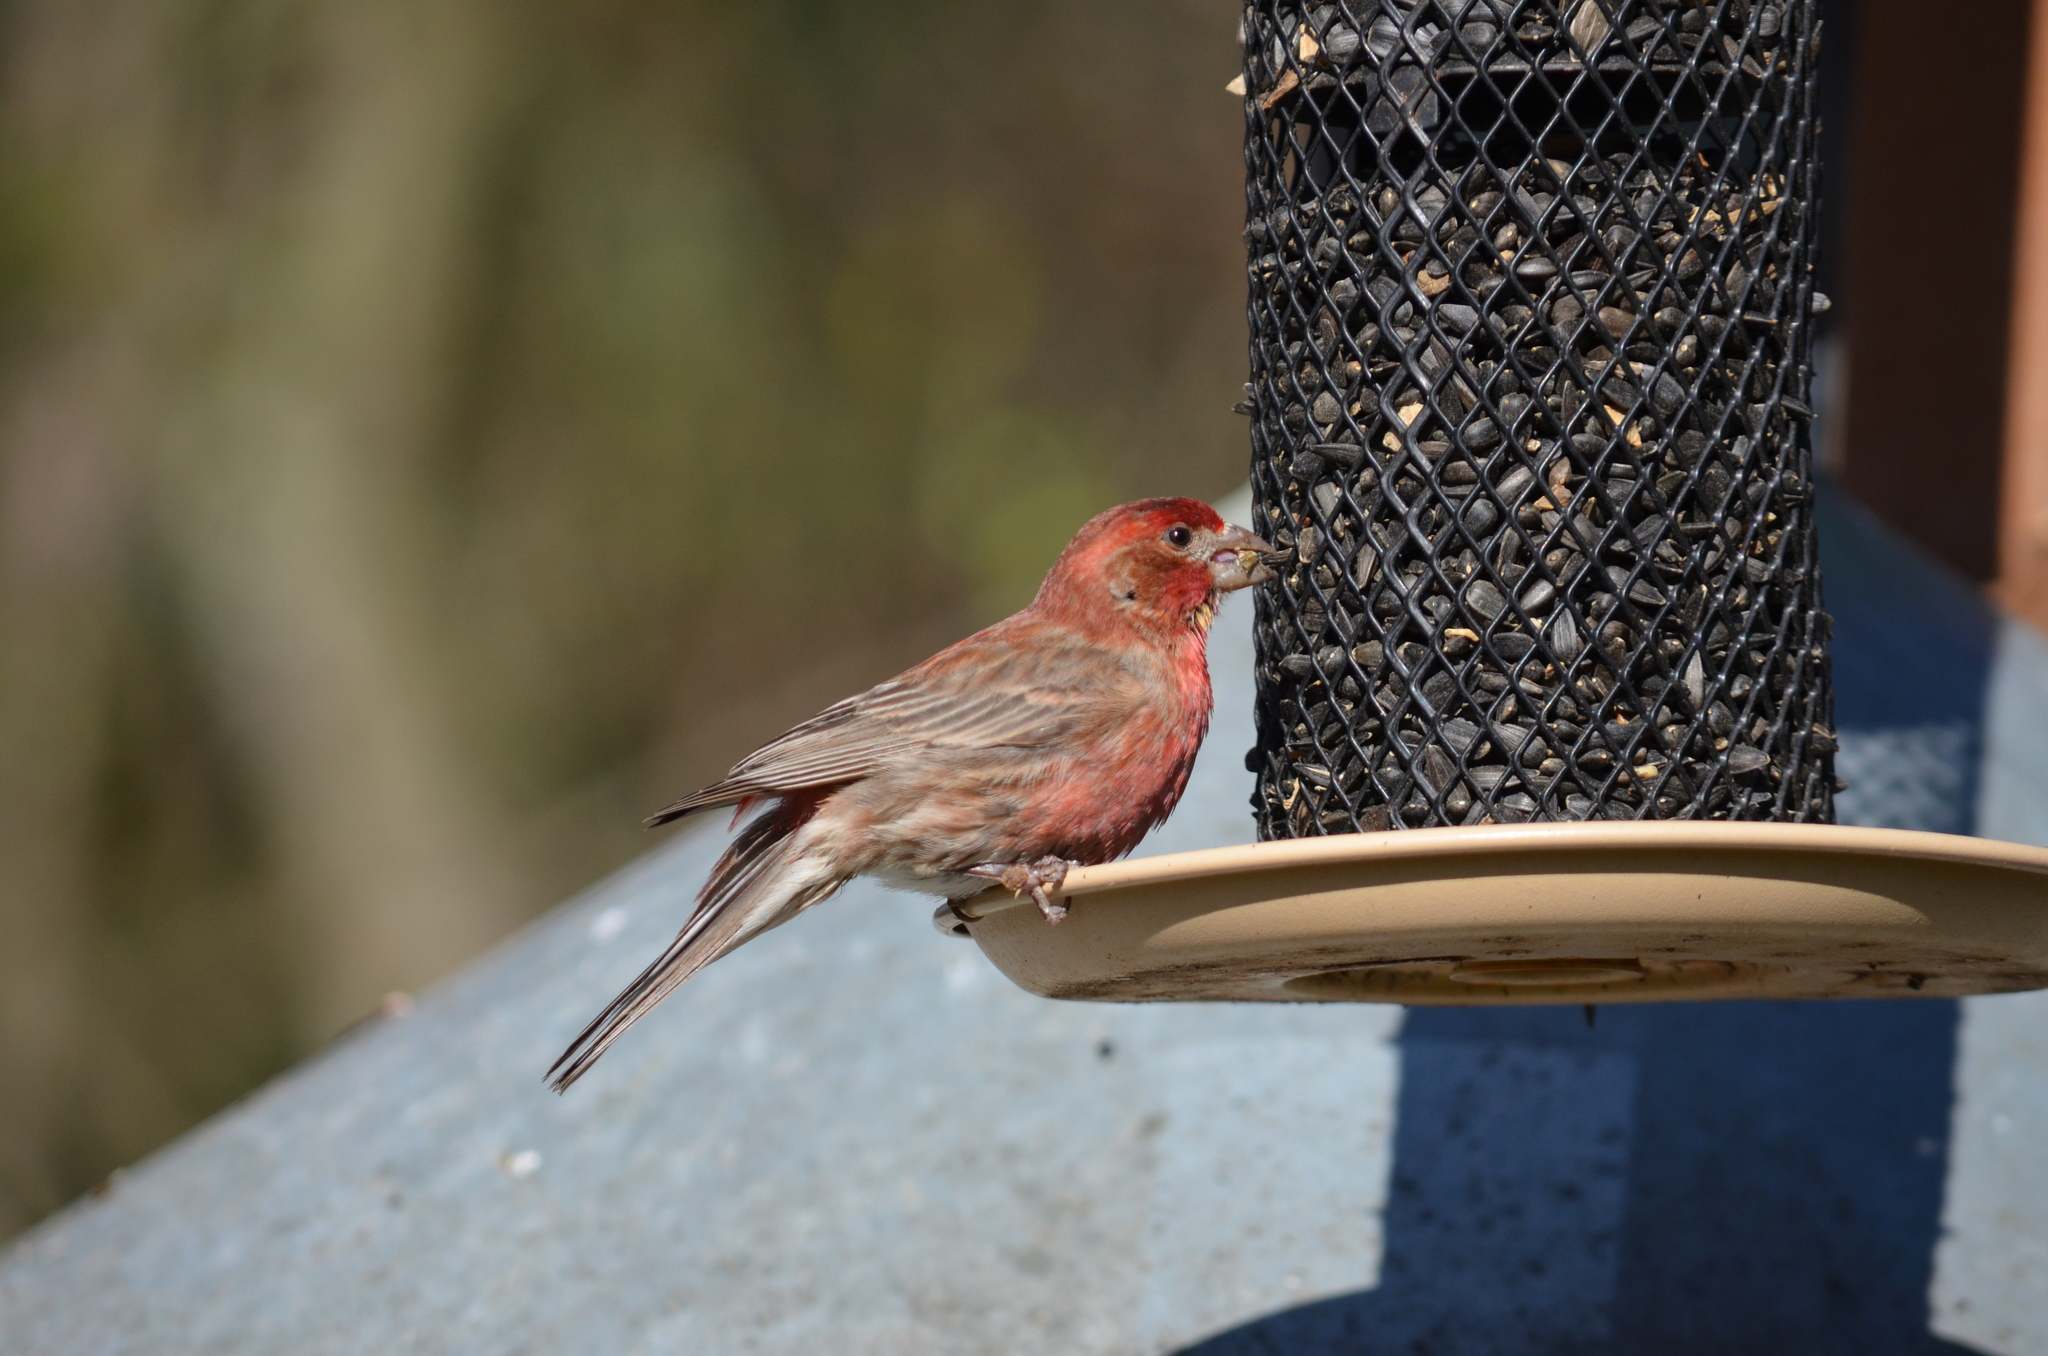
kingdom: Animalia
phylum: Chordata
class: Aves
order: Passeriformes
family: Fringillidae
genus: Haemorhous
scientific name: Haemorhous mexicanus
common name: House finch
